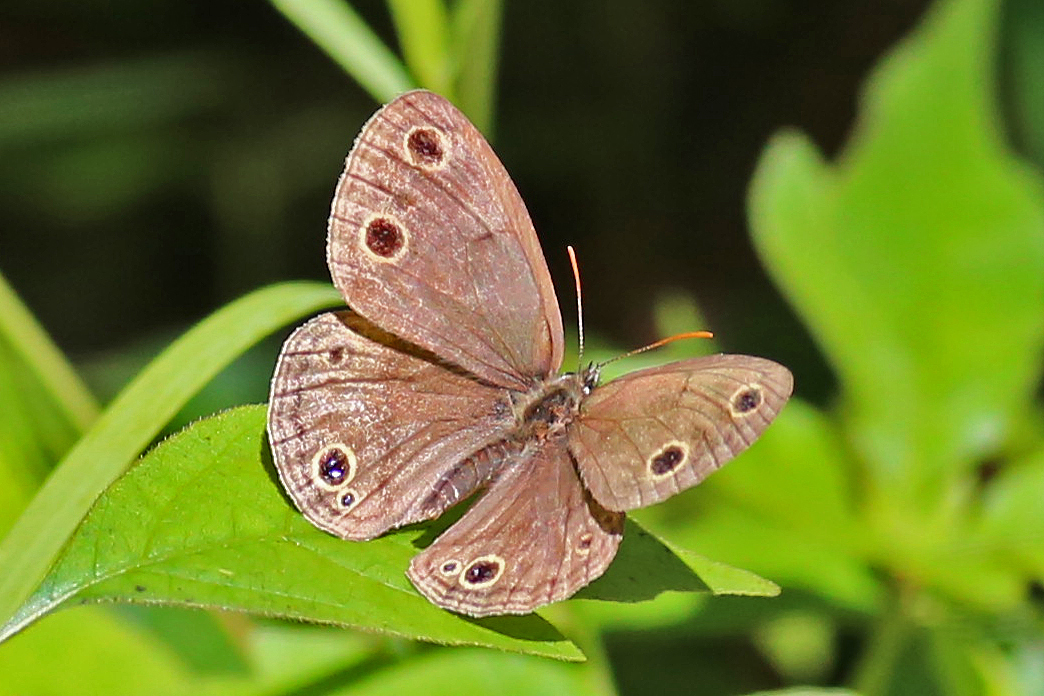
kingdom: Animalia
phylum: Arthropoda
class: Insecta
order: Lepidoptera
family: Nymphalidae
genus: Euptychia
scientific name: Euptychia cymela
